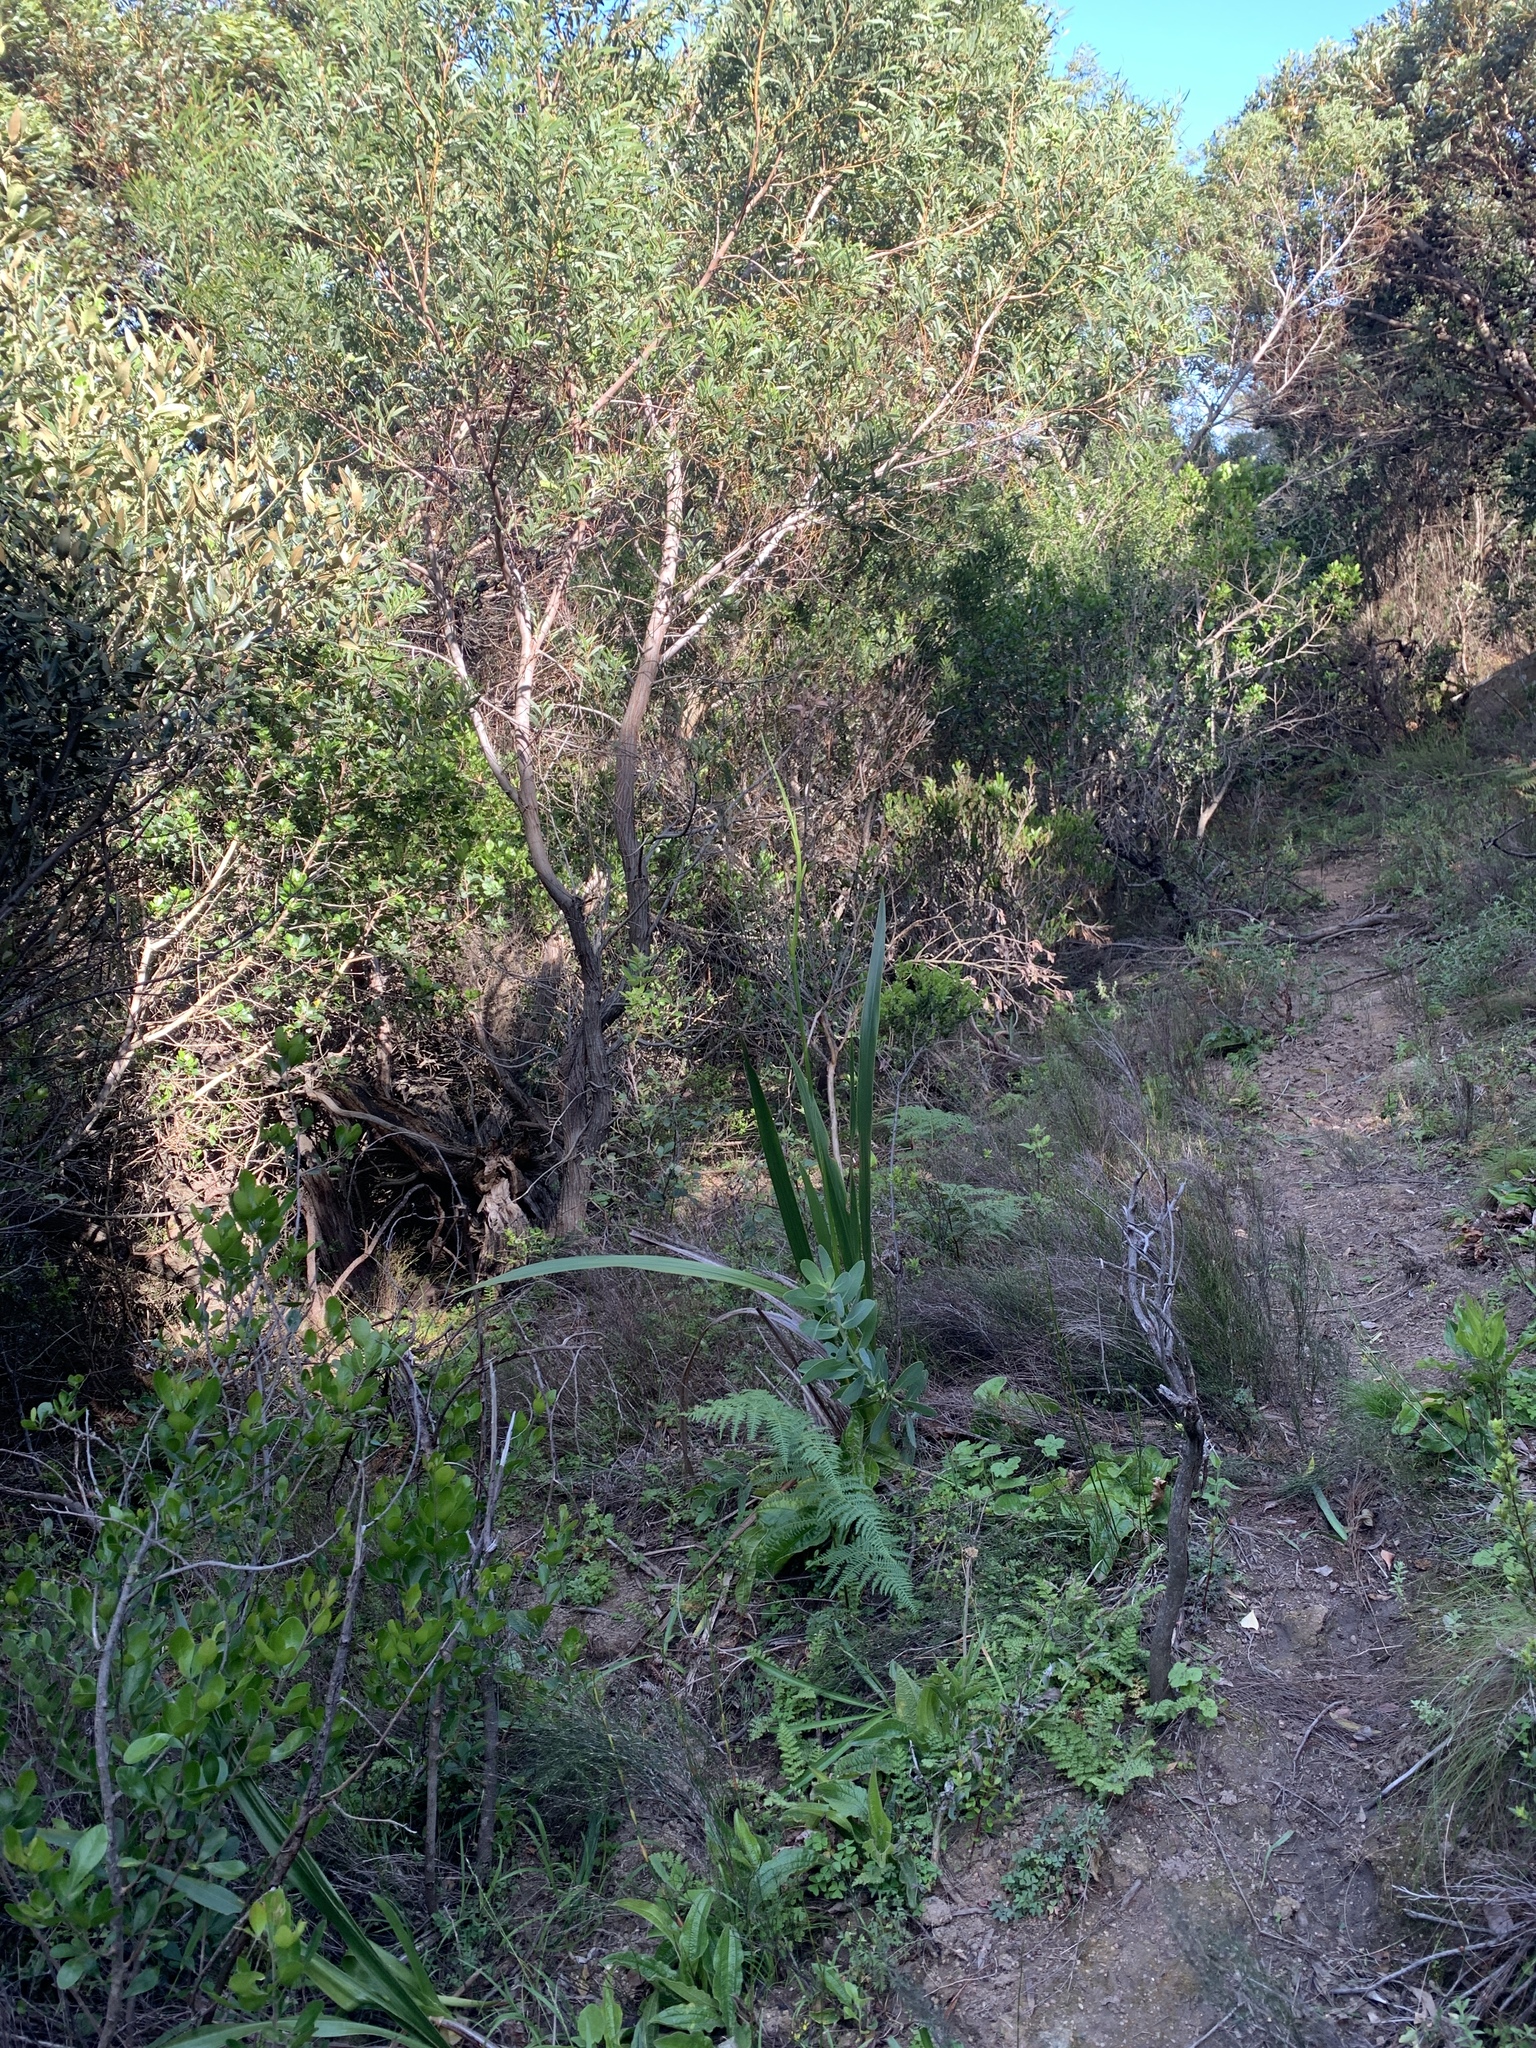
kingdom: Plantae
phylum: Tracheophyta
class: Magnoliopsida
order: Proteales
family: Proteaceae
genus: Protea
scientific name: Protea nitida
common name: Tree protea
